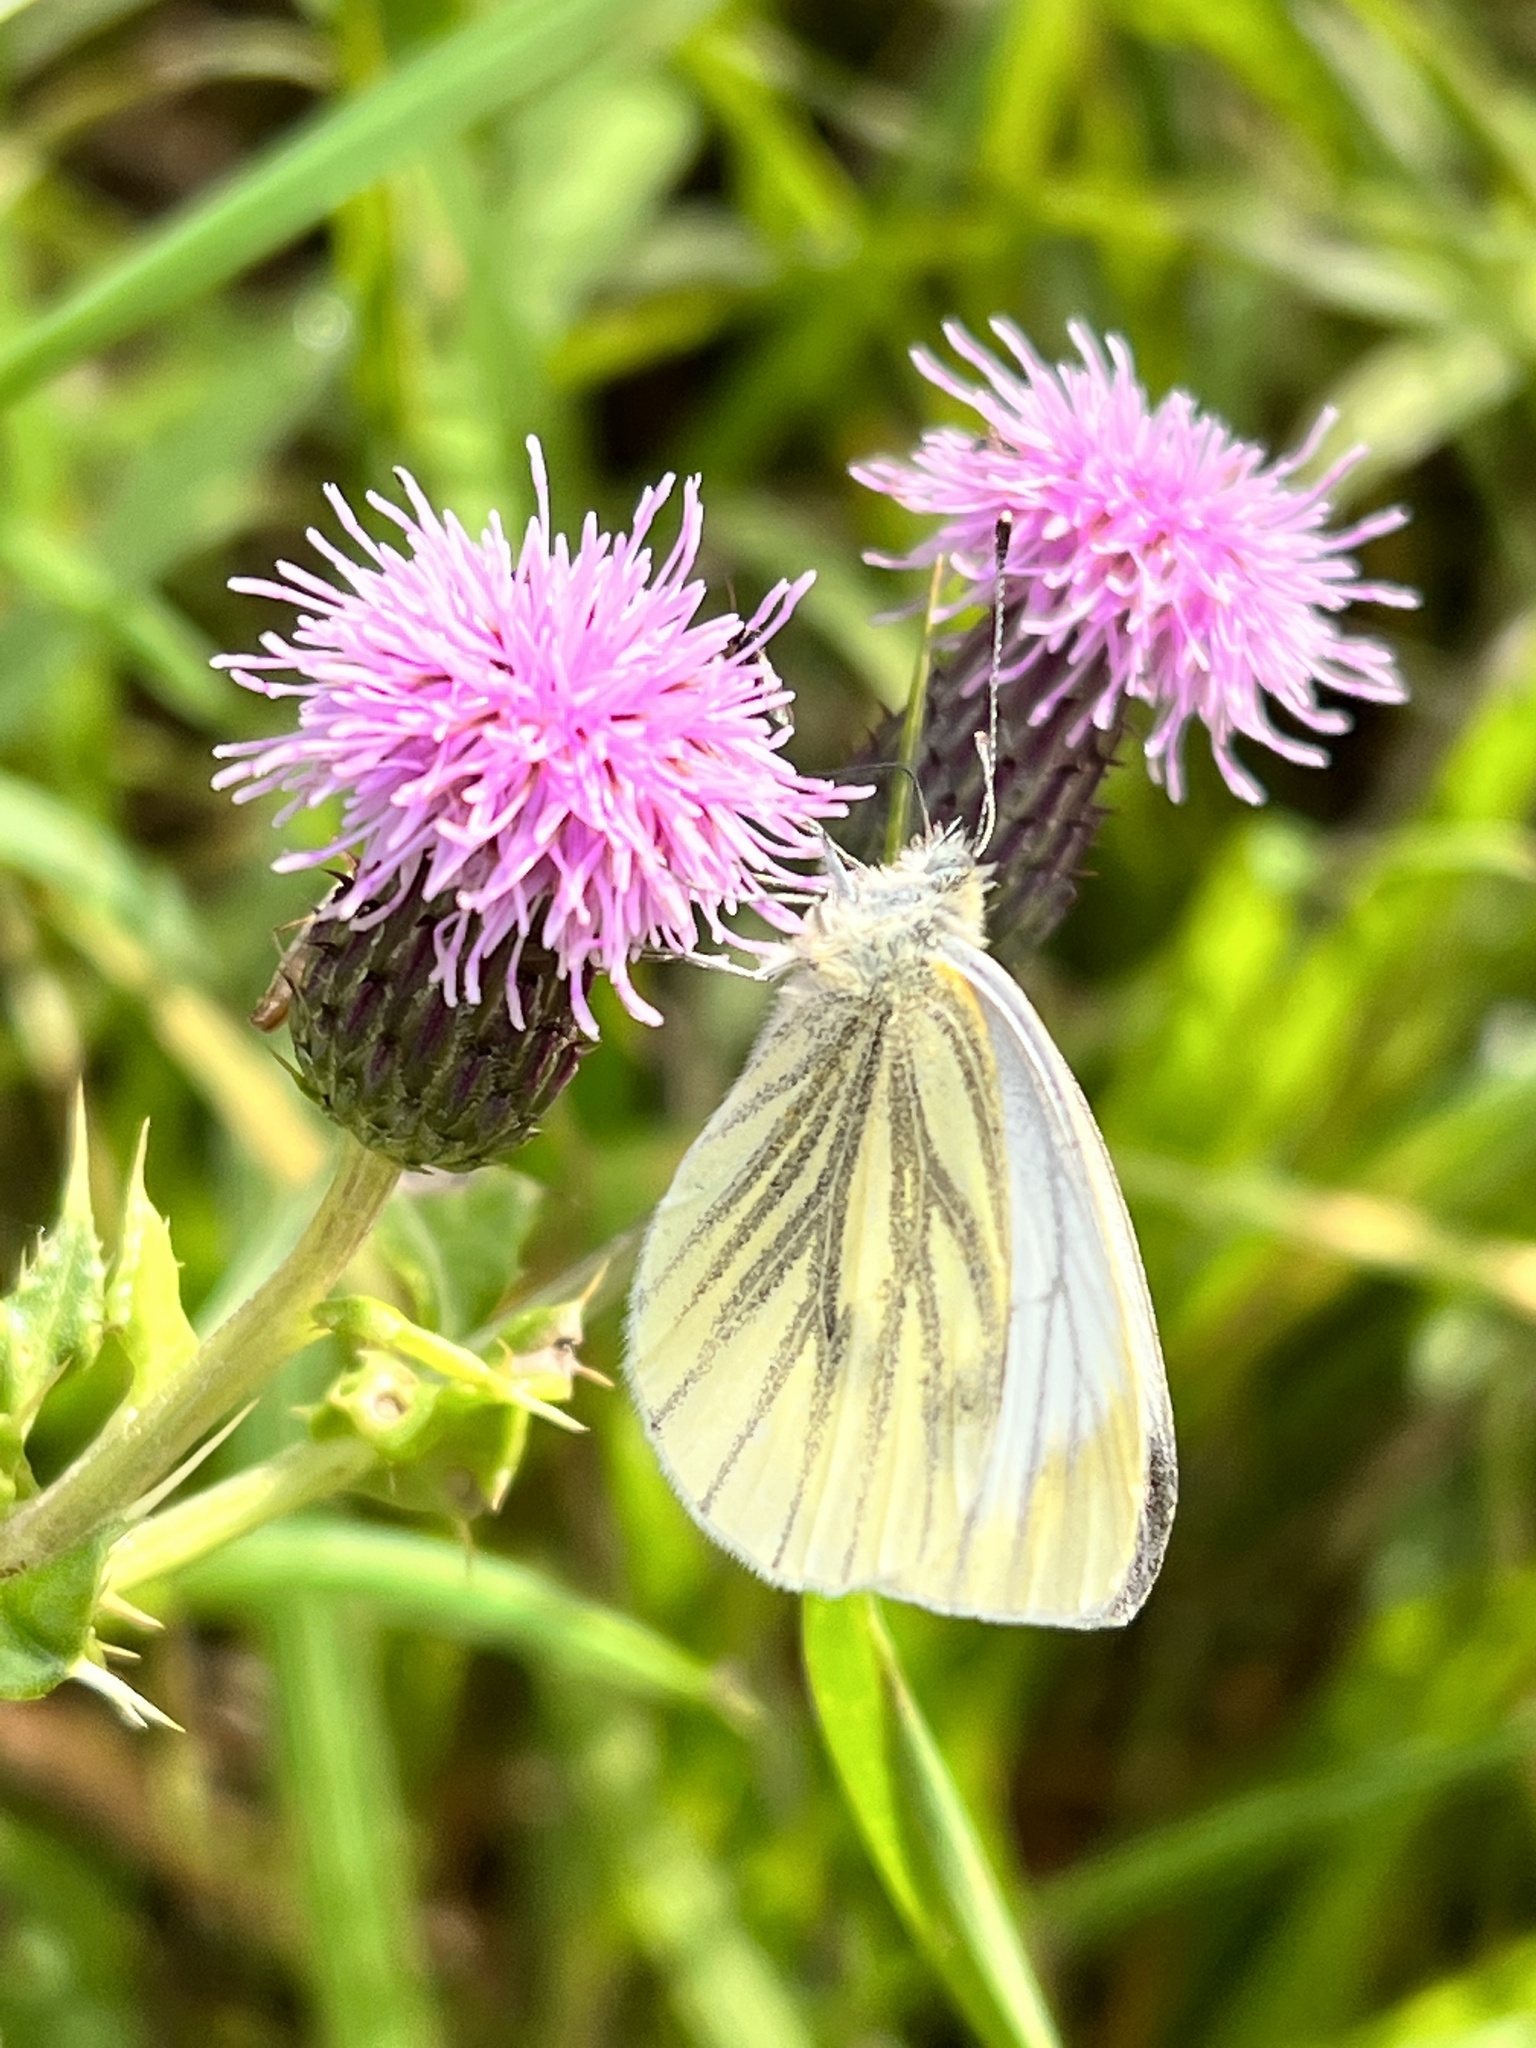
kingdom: Animalia
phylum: Arthropoda
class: Insecta
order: Lepidoptera
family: Pieridae
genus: Pieris
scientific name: Pieris napi
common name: Green-veined white
